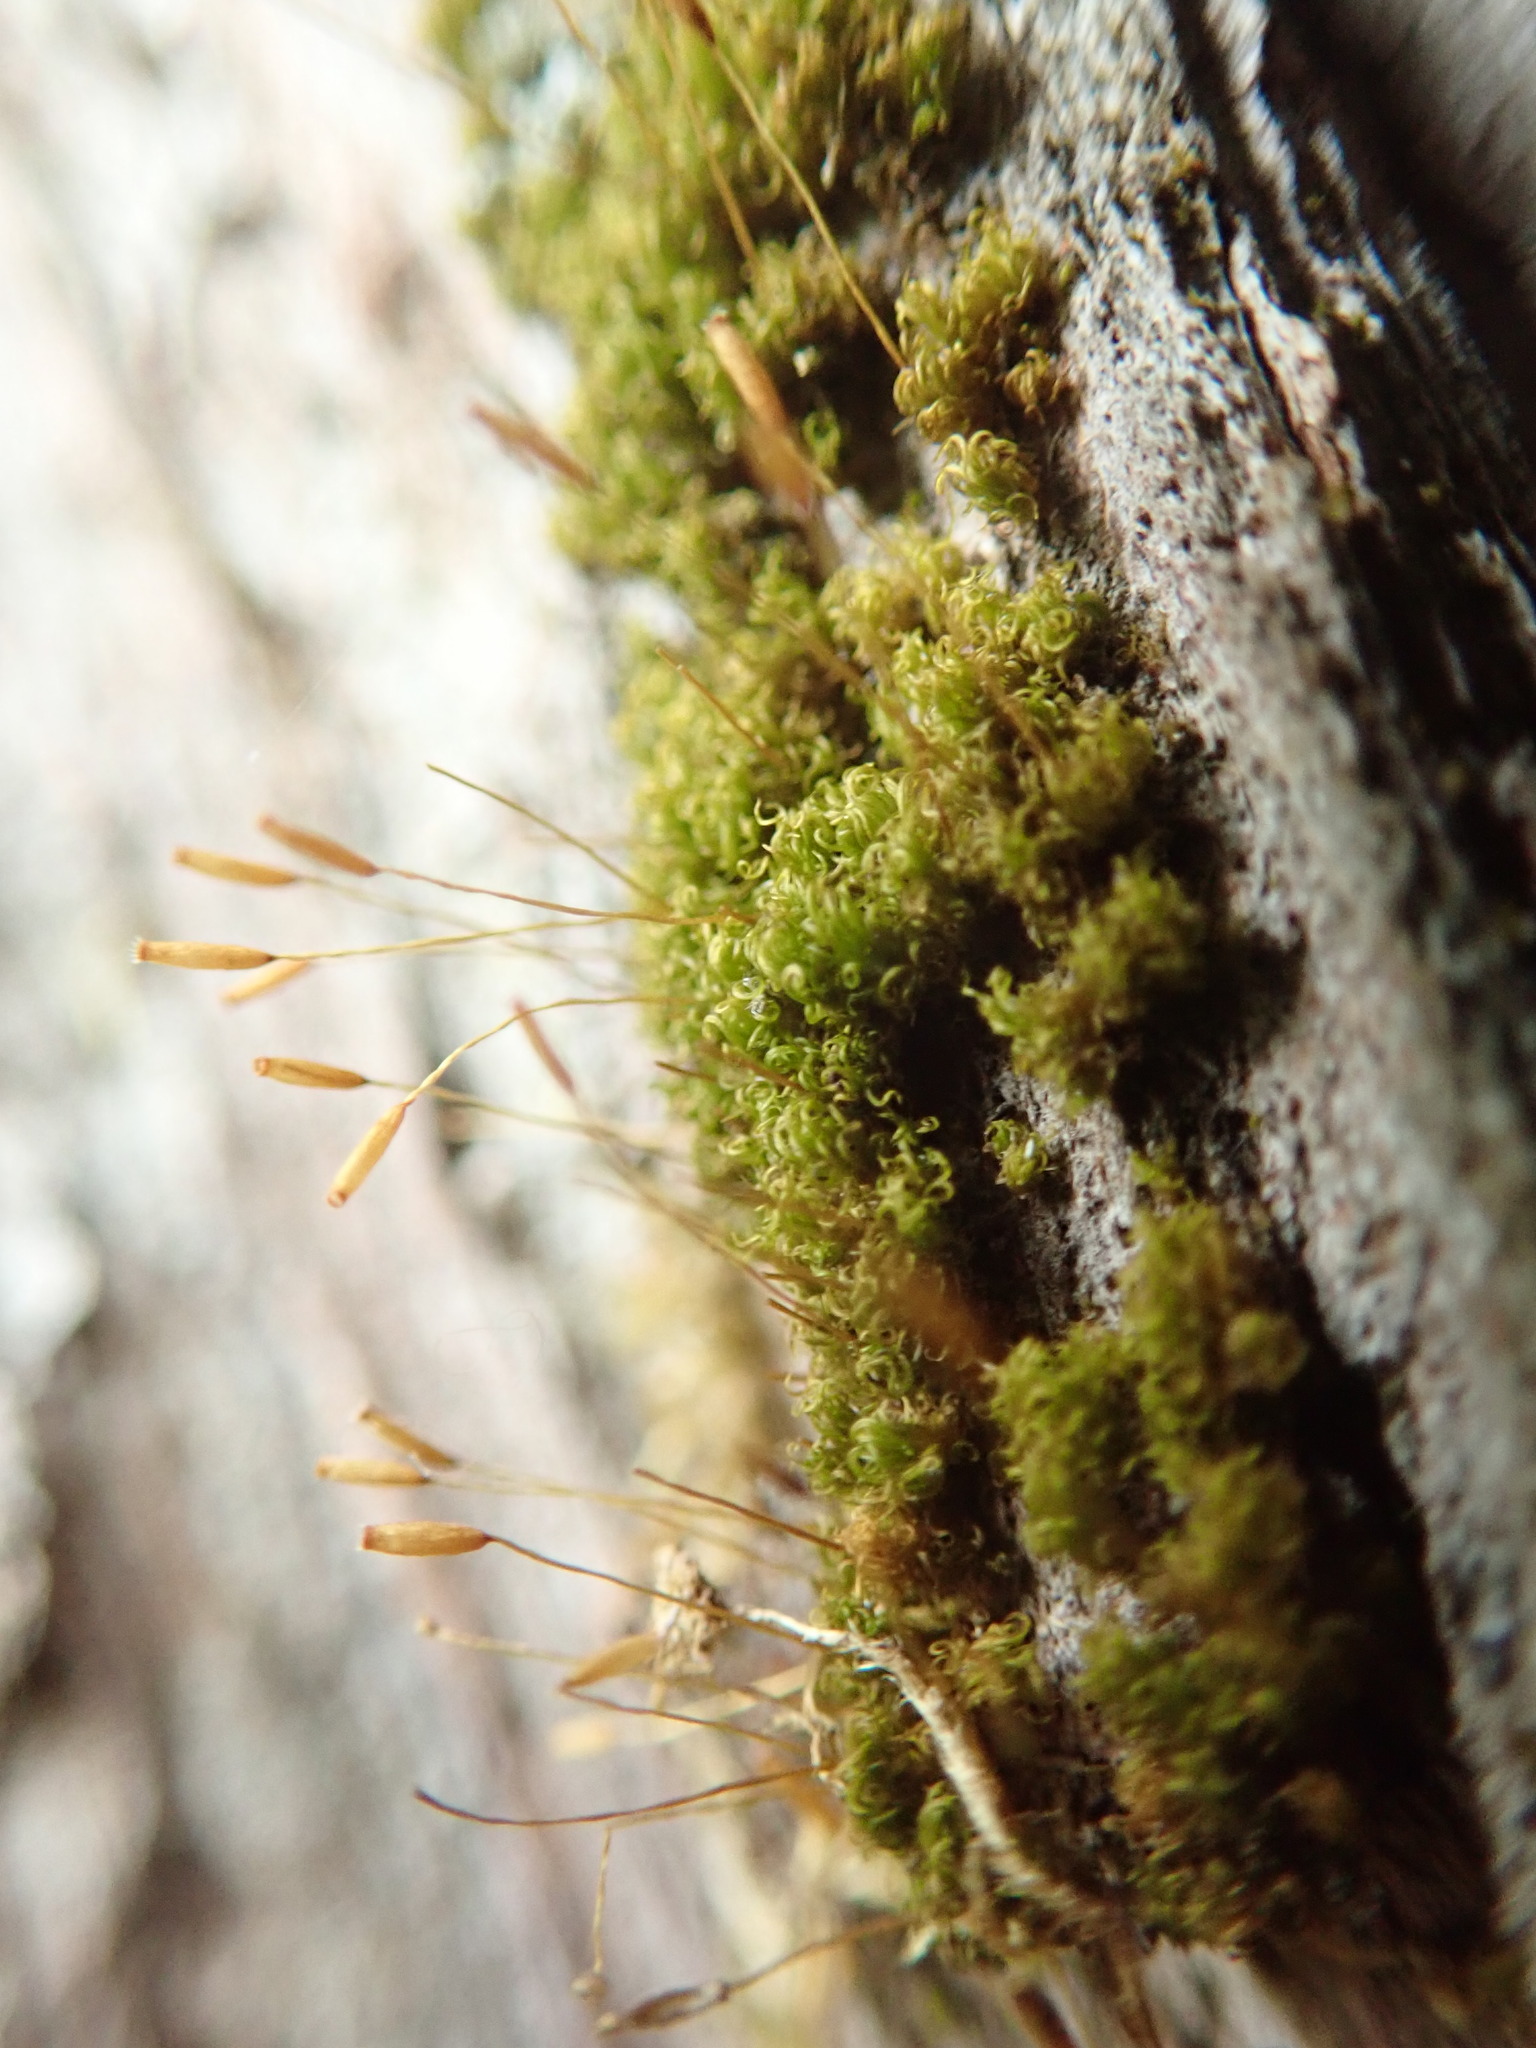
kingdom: Plantae
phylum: Bryophyta
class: Bryopsida
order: Dicranales
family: Rhabdoweisiaceae
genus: Dicranoweisia
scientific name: Dicranoweisia cirrata
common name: Common pincushion
